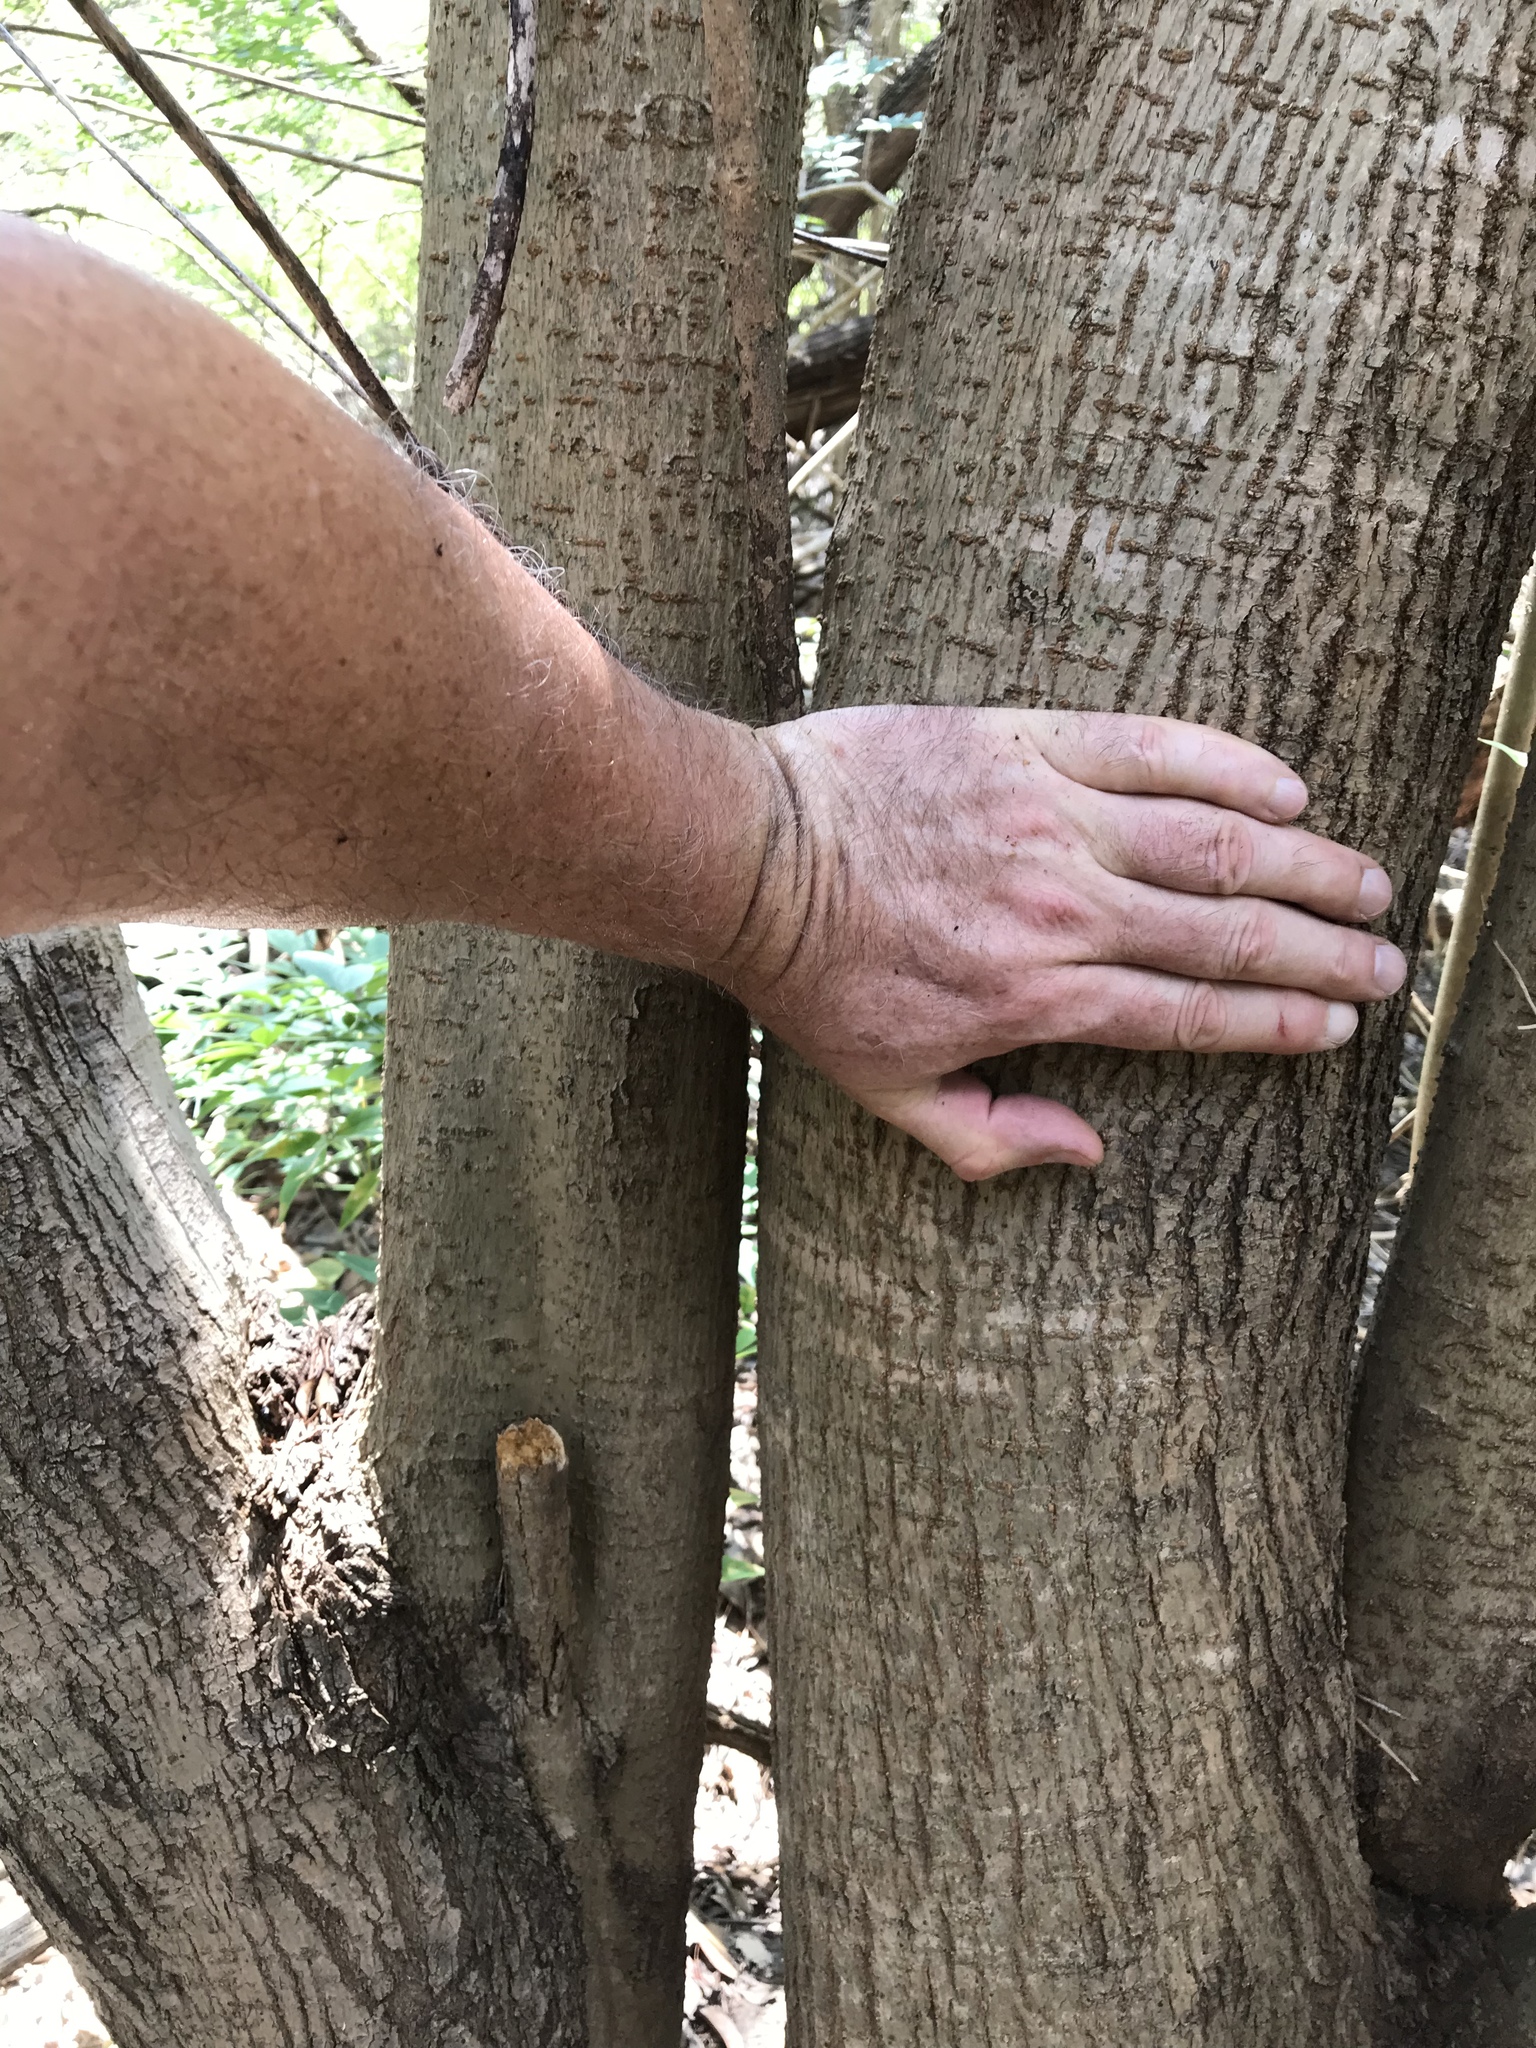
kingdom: Plantae
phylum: Tracheophyta
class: Magnoliopsida
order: Lamiales
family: Oleaceae
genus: Ligustrum
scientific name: Ligustrum lucidum
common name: Glossy privet
